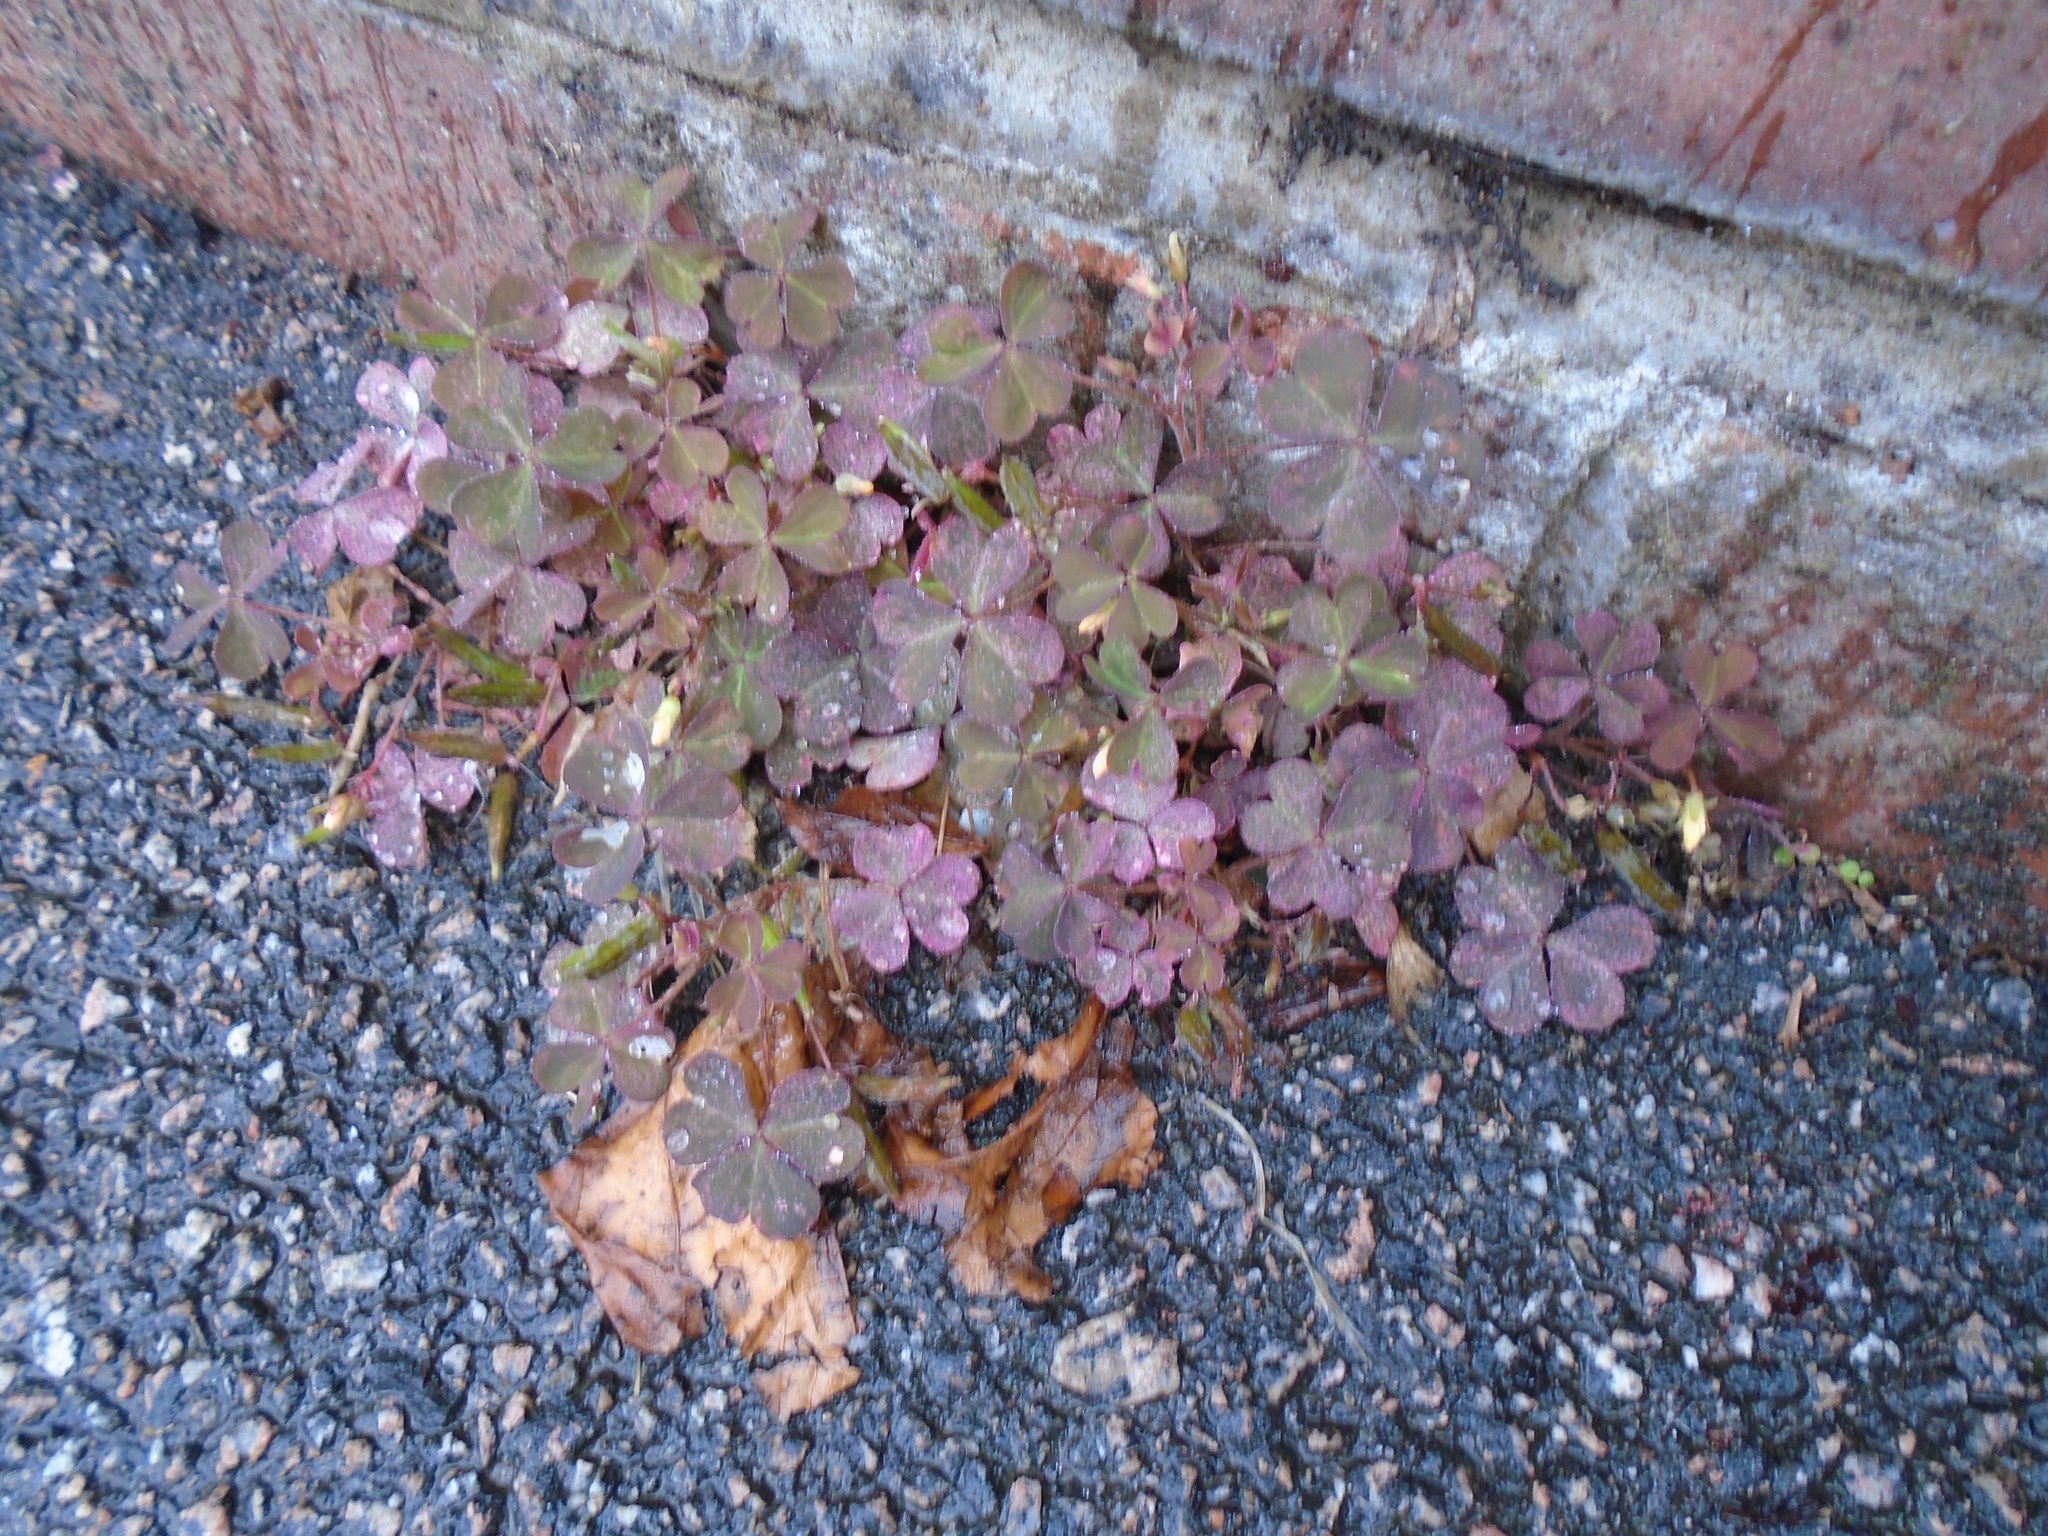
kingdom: Plantae
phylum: Tracheophyta
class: Magnoliopsida
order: Oxalidales
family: Oxalidaceae
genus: Oxalis
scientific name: Oxalis corniculata
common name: Procumbent yellow-sorrel
